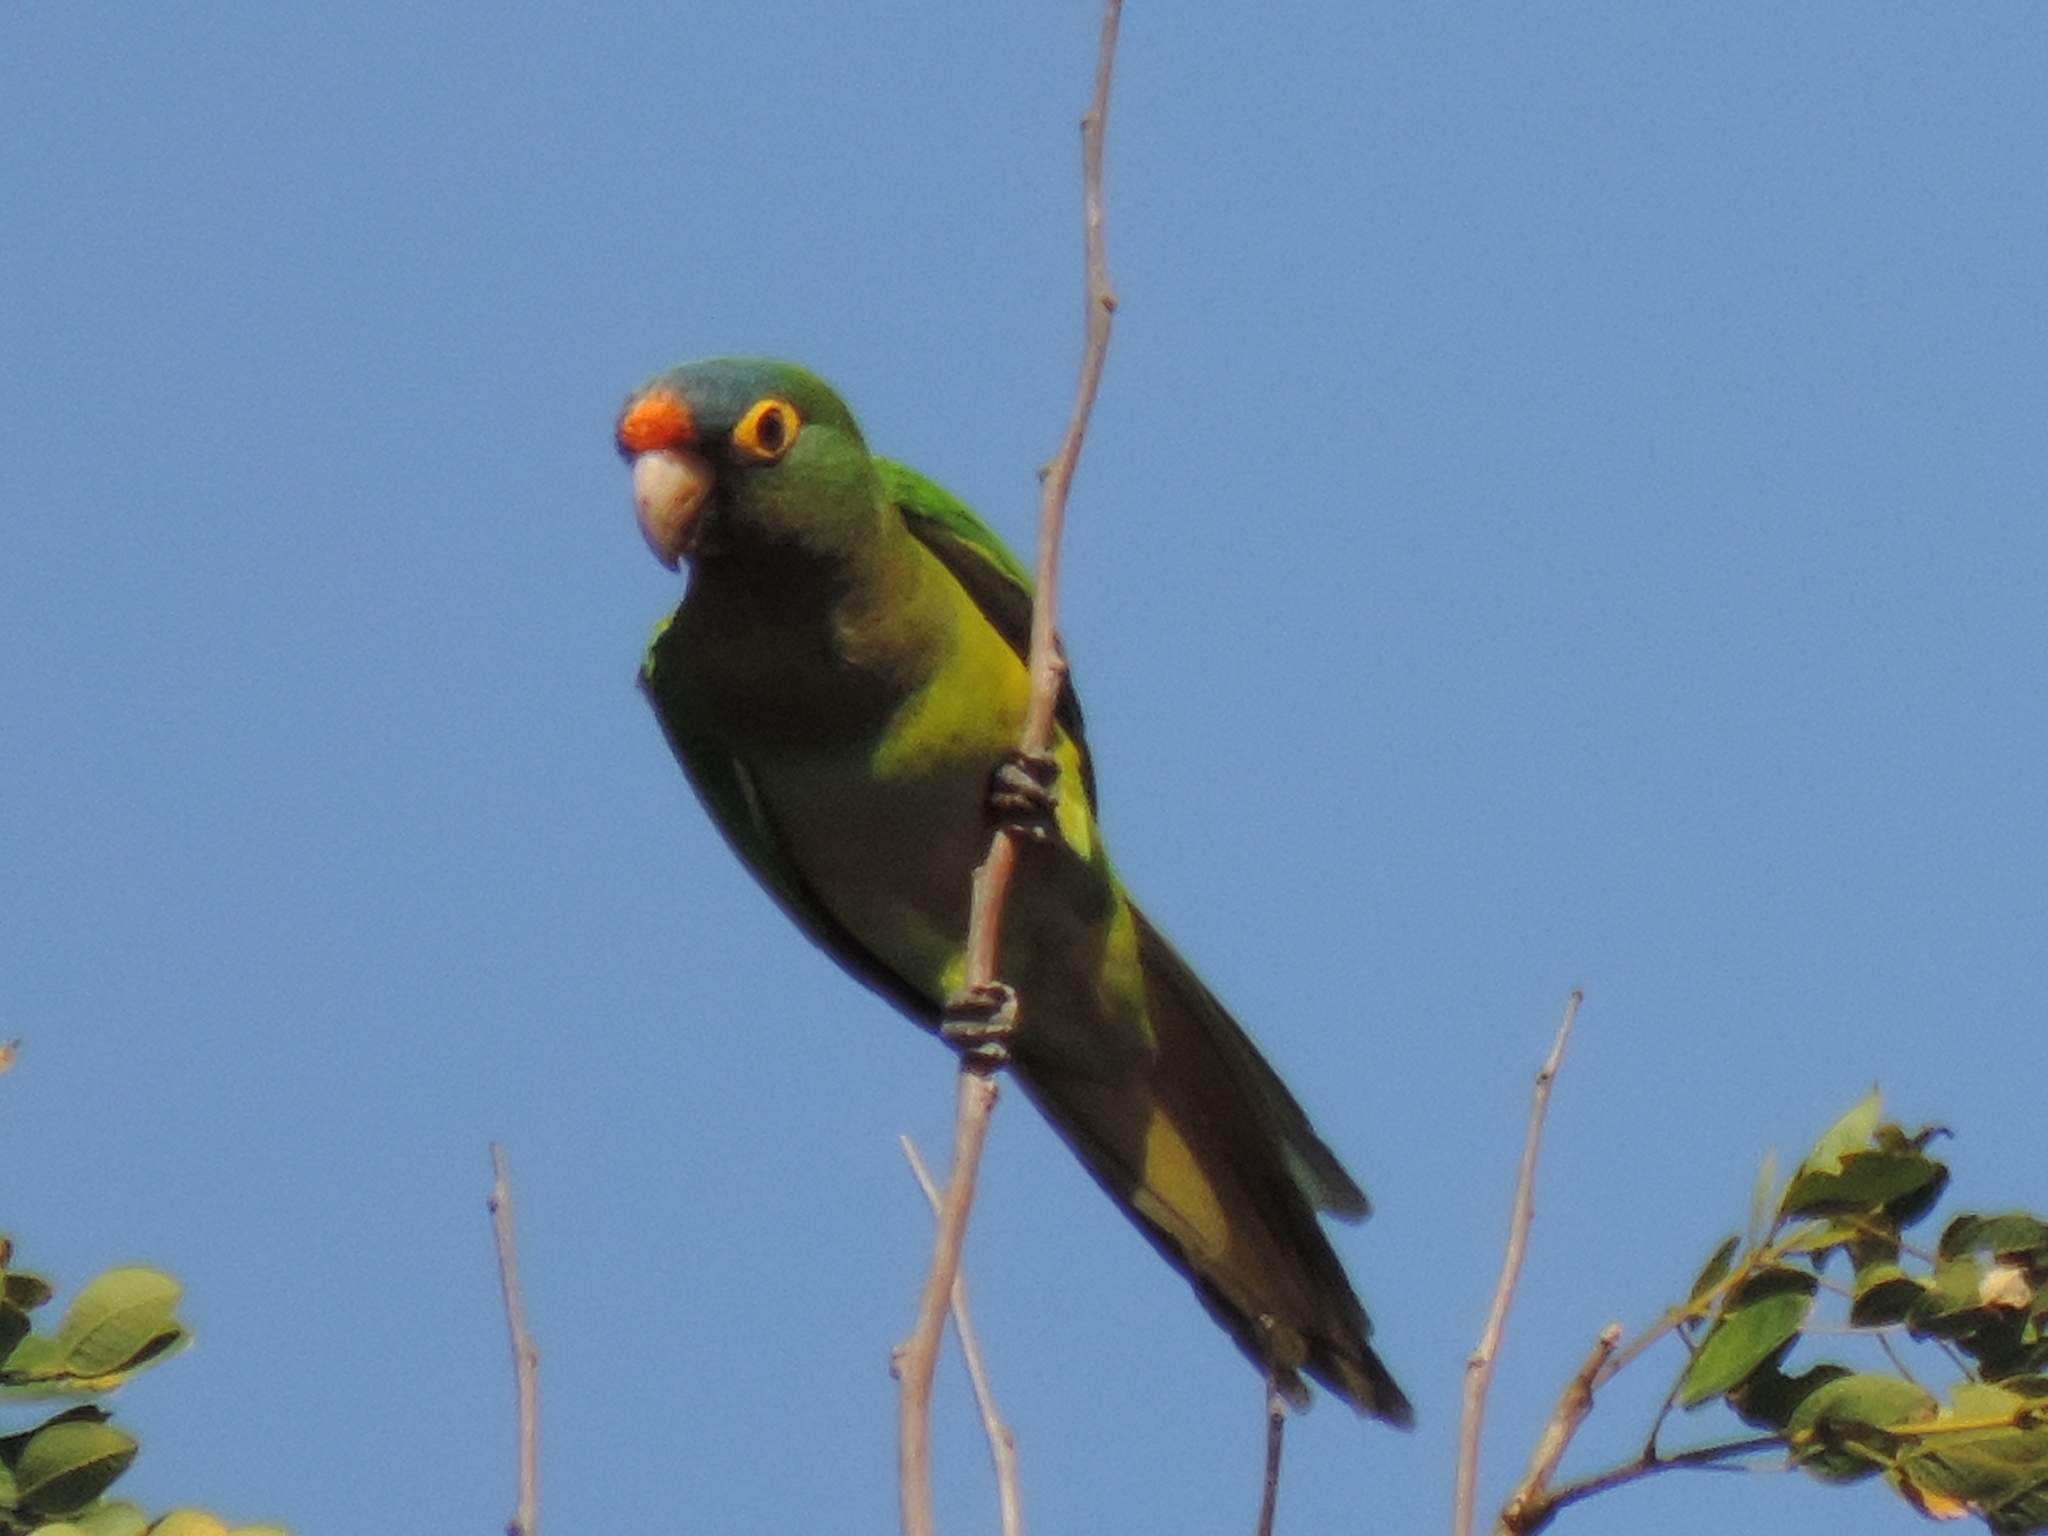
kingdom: Animalia
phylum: Chordata
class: Aves
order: Psittaciformes
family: Psittacidae
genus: Aratinga
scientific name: Aratinga canicularis
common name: Orange-fronted parakeet
